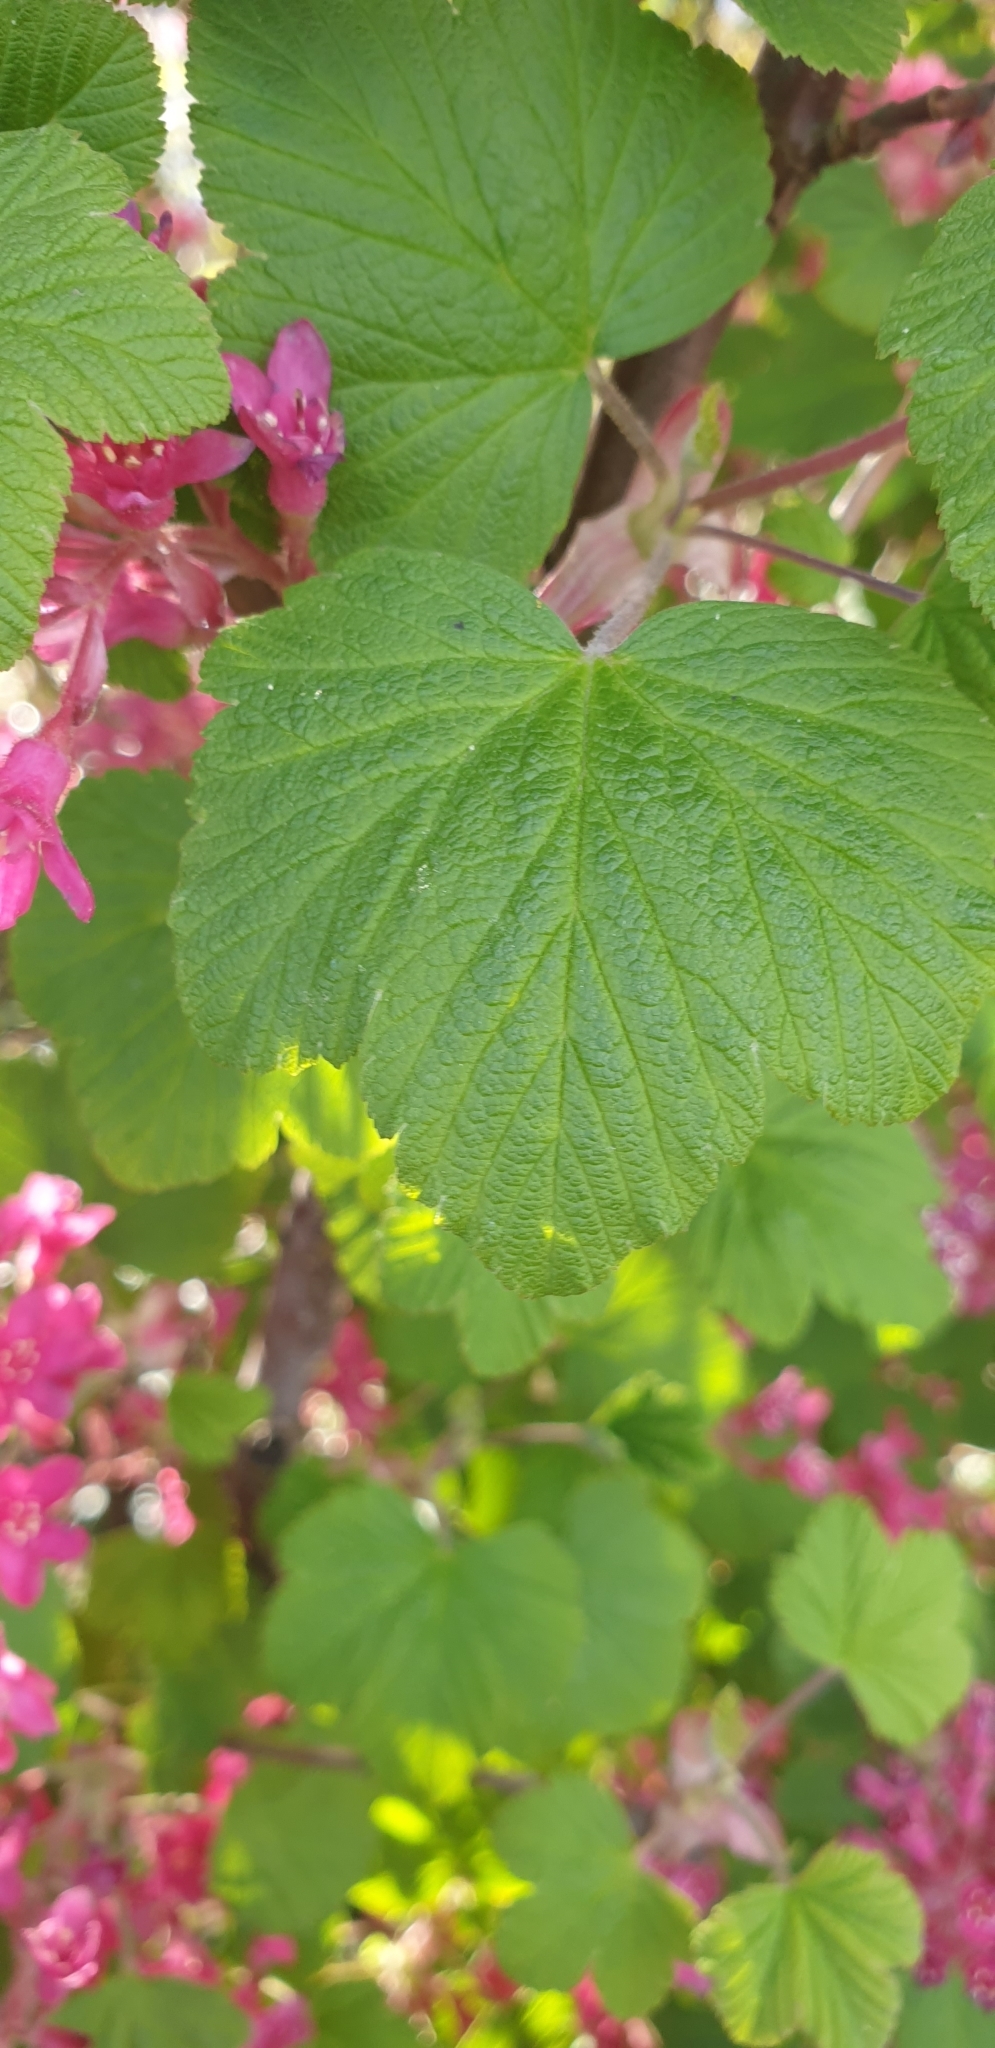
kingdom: Plantae
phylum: Tracheophyta
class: Magnoliopsida
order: Saxifragales
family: Grossulariaceae
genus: Ribes
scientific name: Ribes sanguineum
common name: Flowering currant
